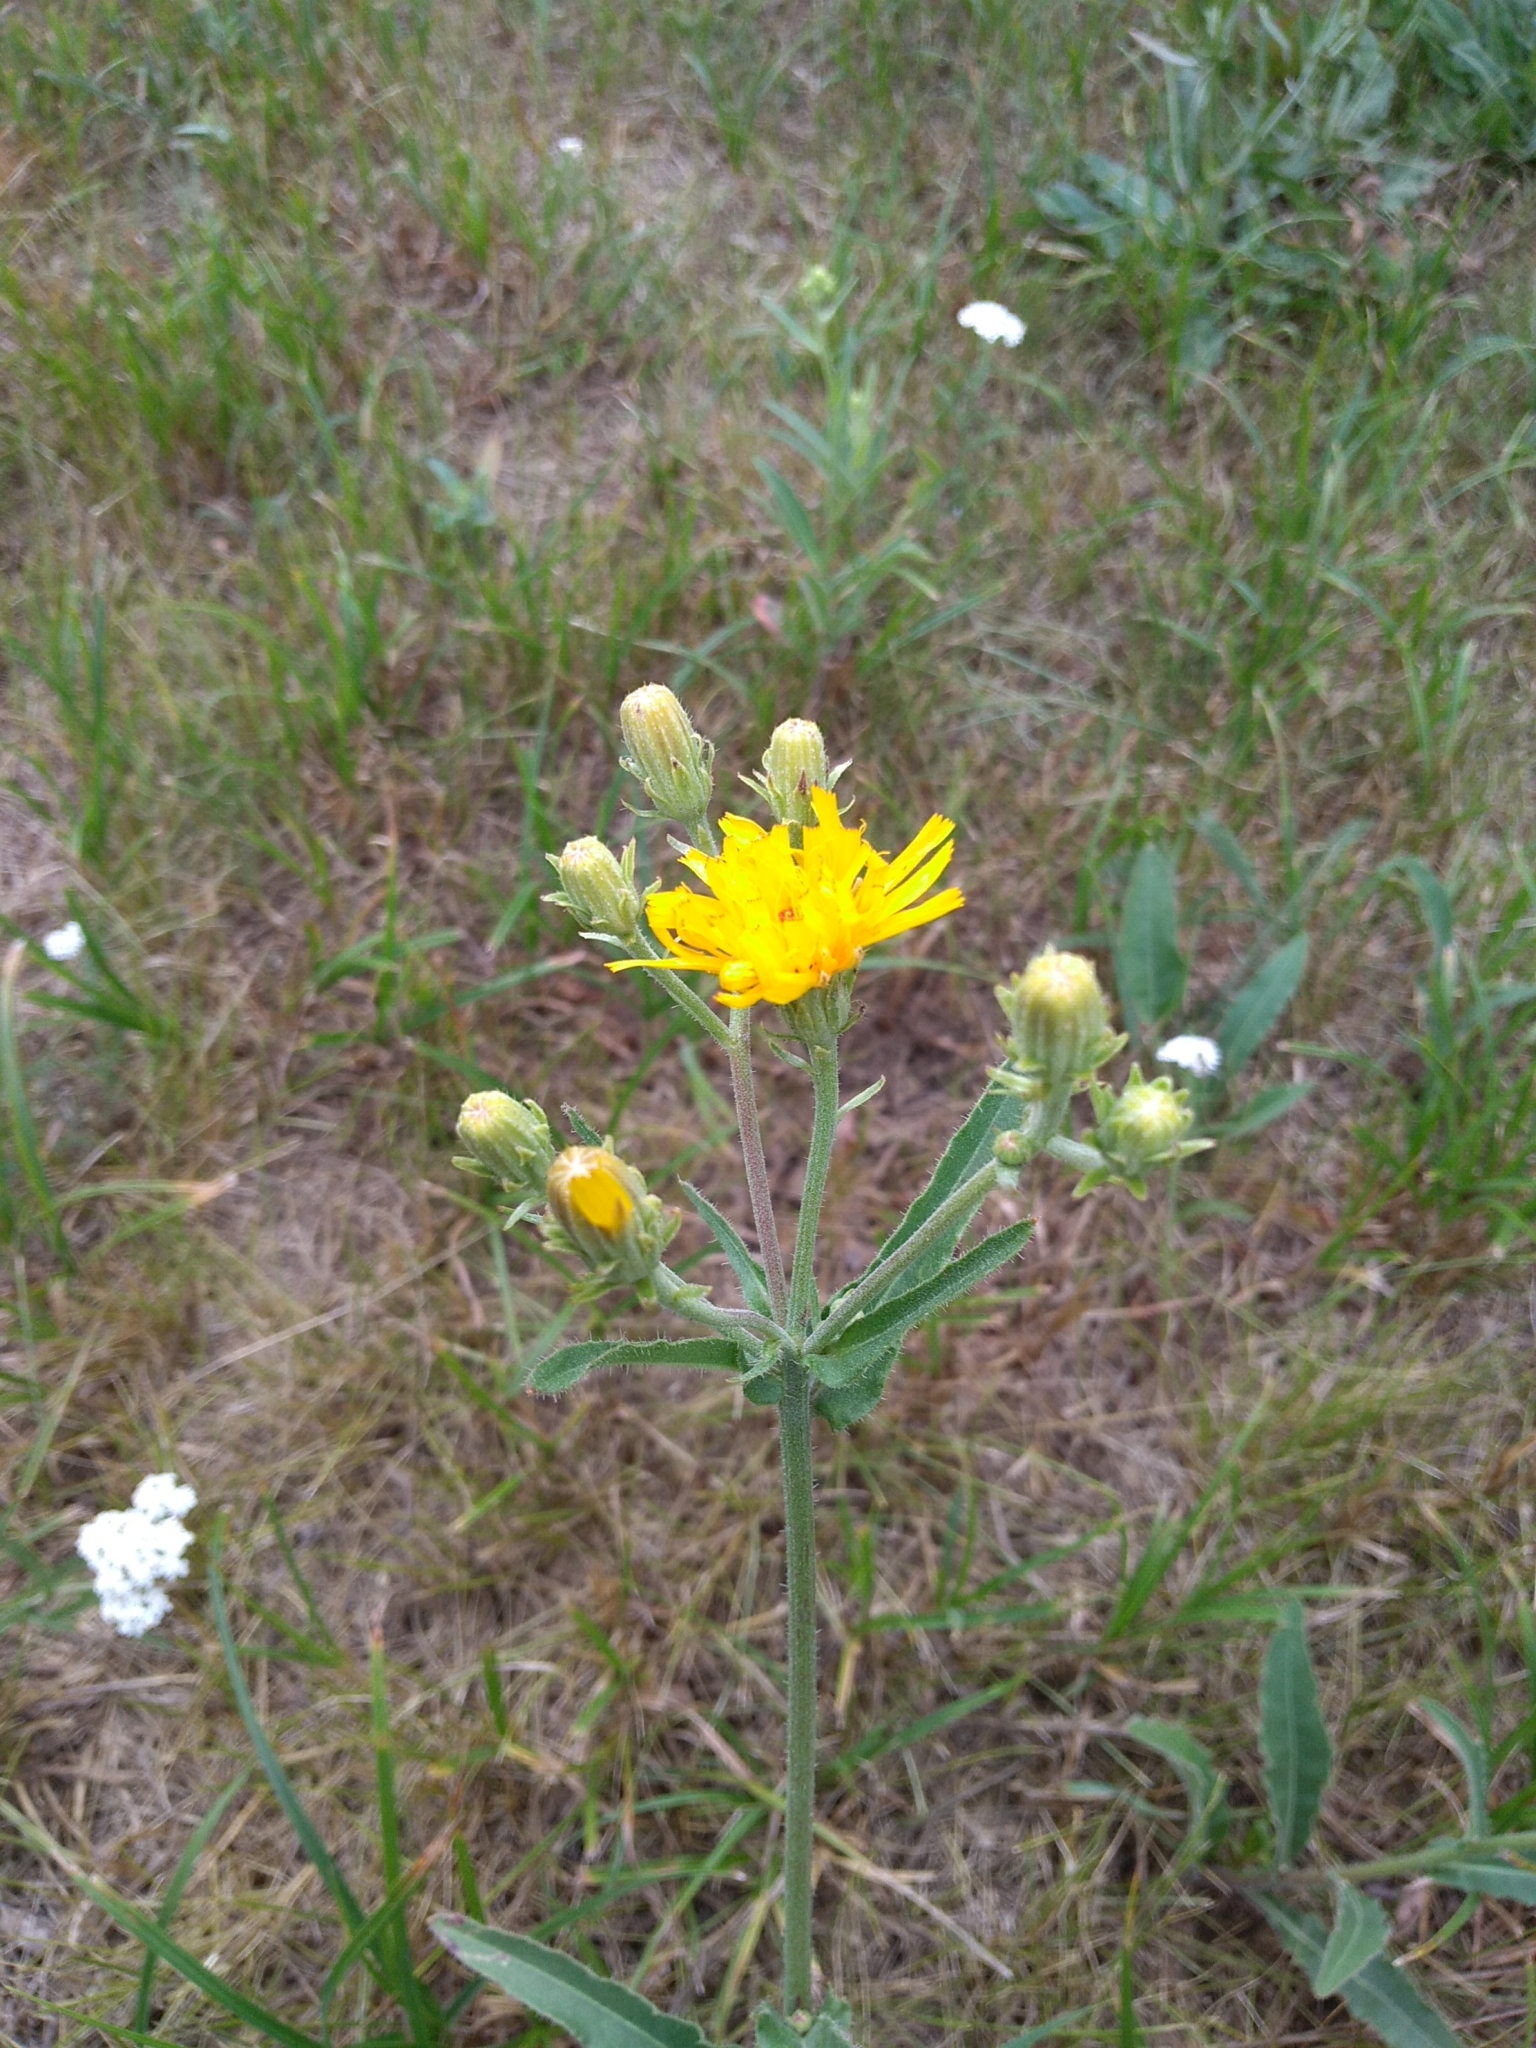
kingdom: Plantae
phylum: Tracheophyta
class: Magnoliopsida
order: Asterales
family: Asteraceae
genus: Picris
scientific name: Picris hieracioides
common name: Hawkweed oxtongue
